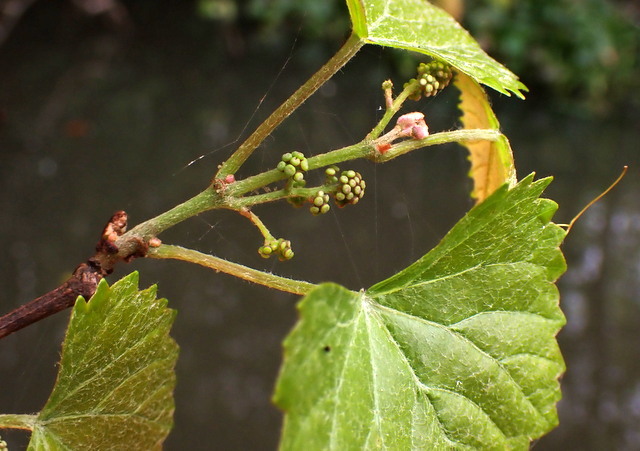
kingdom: Plantae
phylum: Tracheophyta
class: Magnoliopsida
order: Vitales
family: Vitaceae
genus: Vitis
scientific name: Vitis rotundifolia
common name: Muscadine grape
